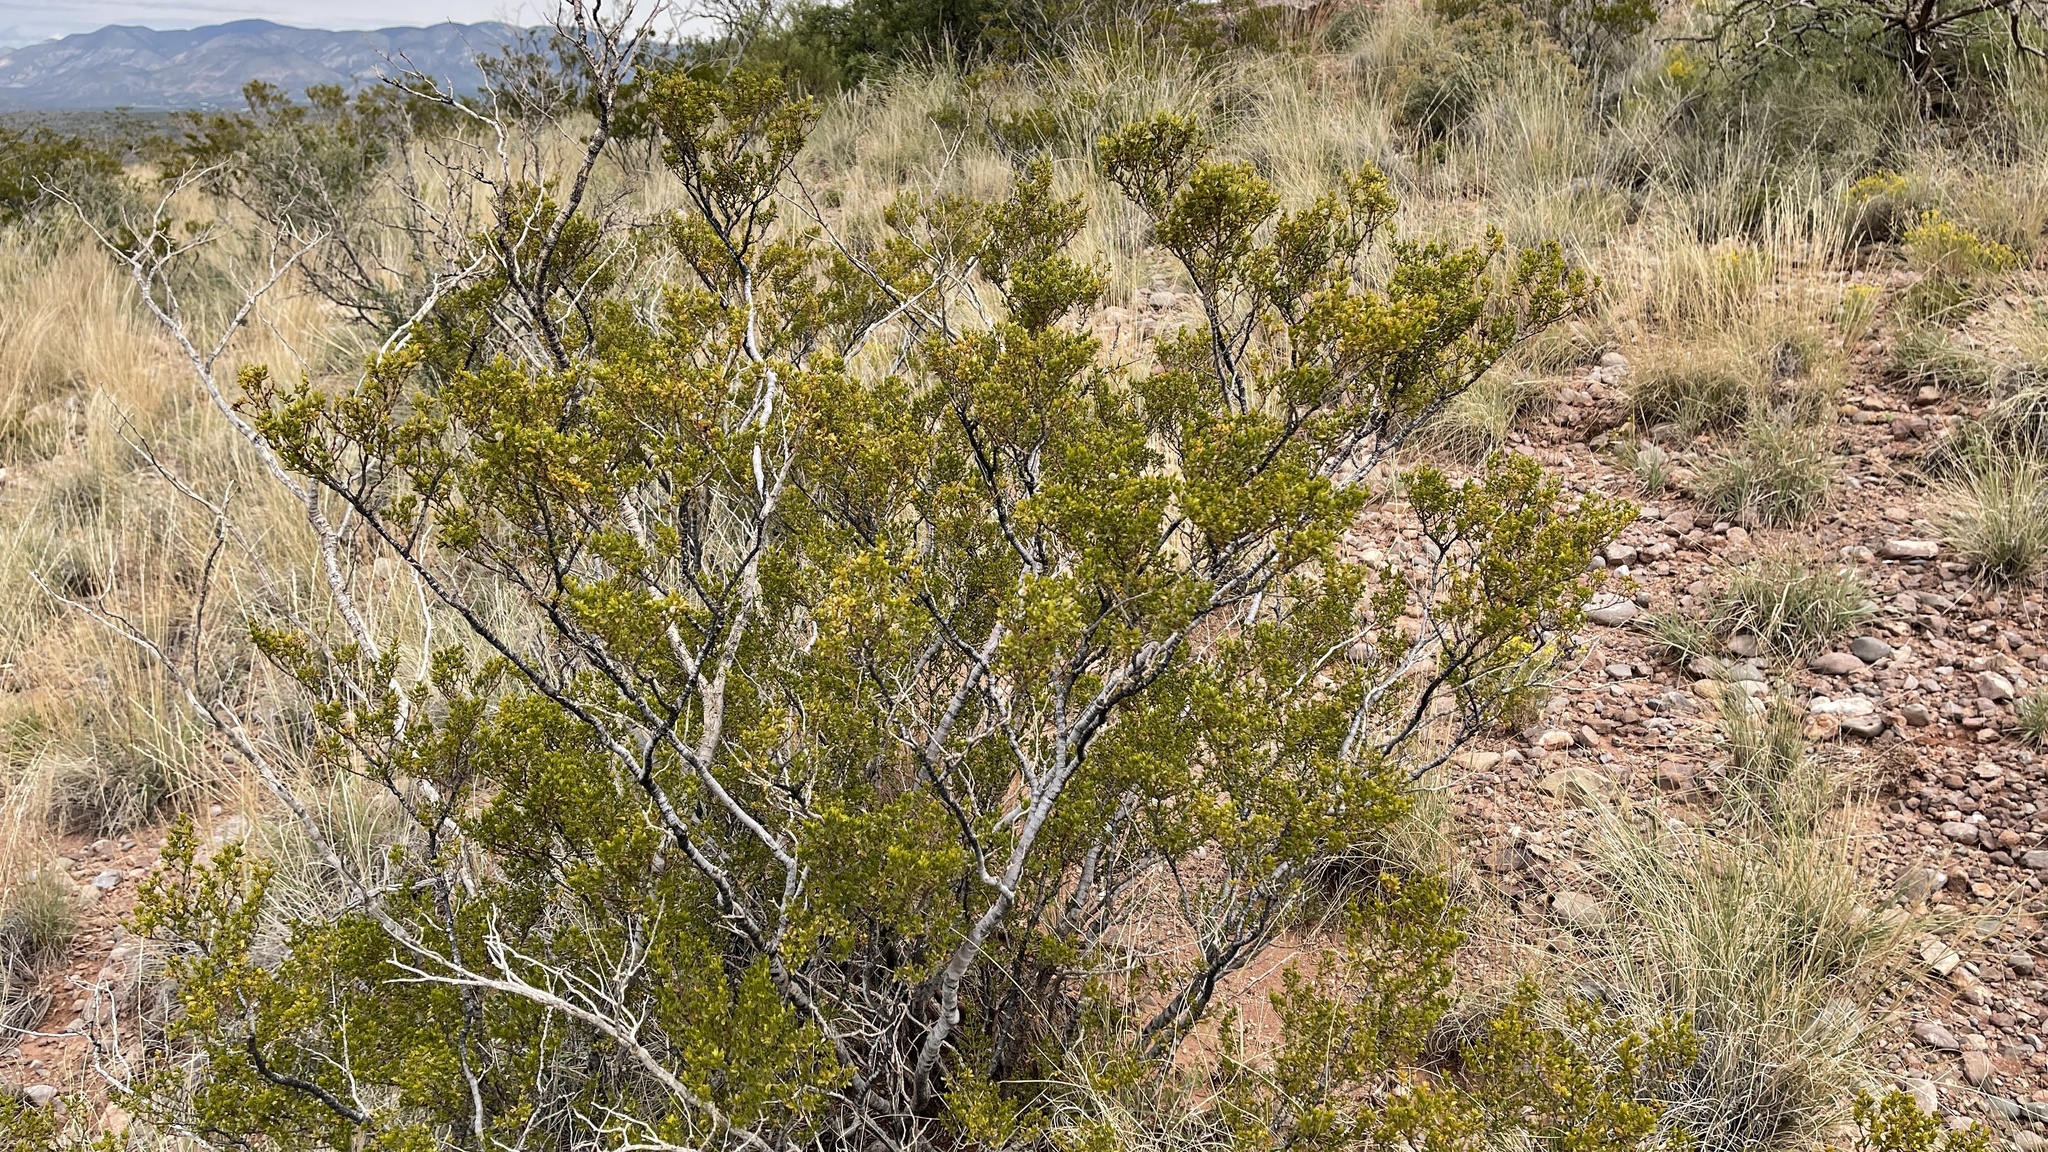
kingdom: Plantae
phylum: Tracheophyta
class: Magnoliopsida
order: Zygophyllales
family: Zygophyllaceae
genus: Larrea
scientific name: Larrea tridentata
